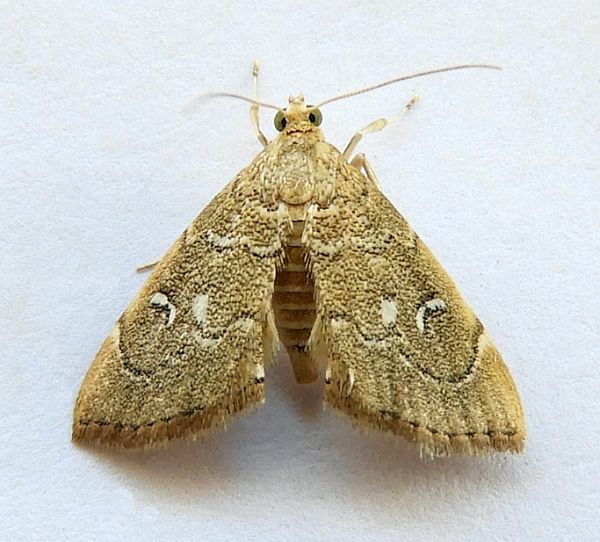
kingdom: Animalia
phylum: Arthropoda
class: Insecta
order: Lepidoptera
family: Crambidae
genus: Nephrogramma
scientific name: Nephrogramma separata
